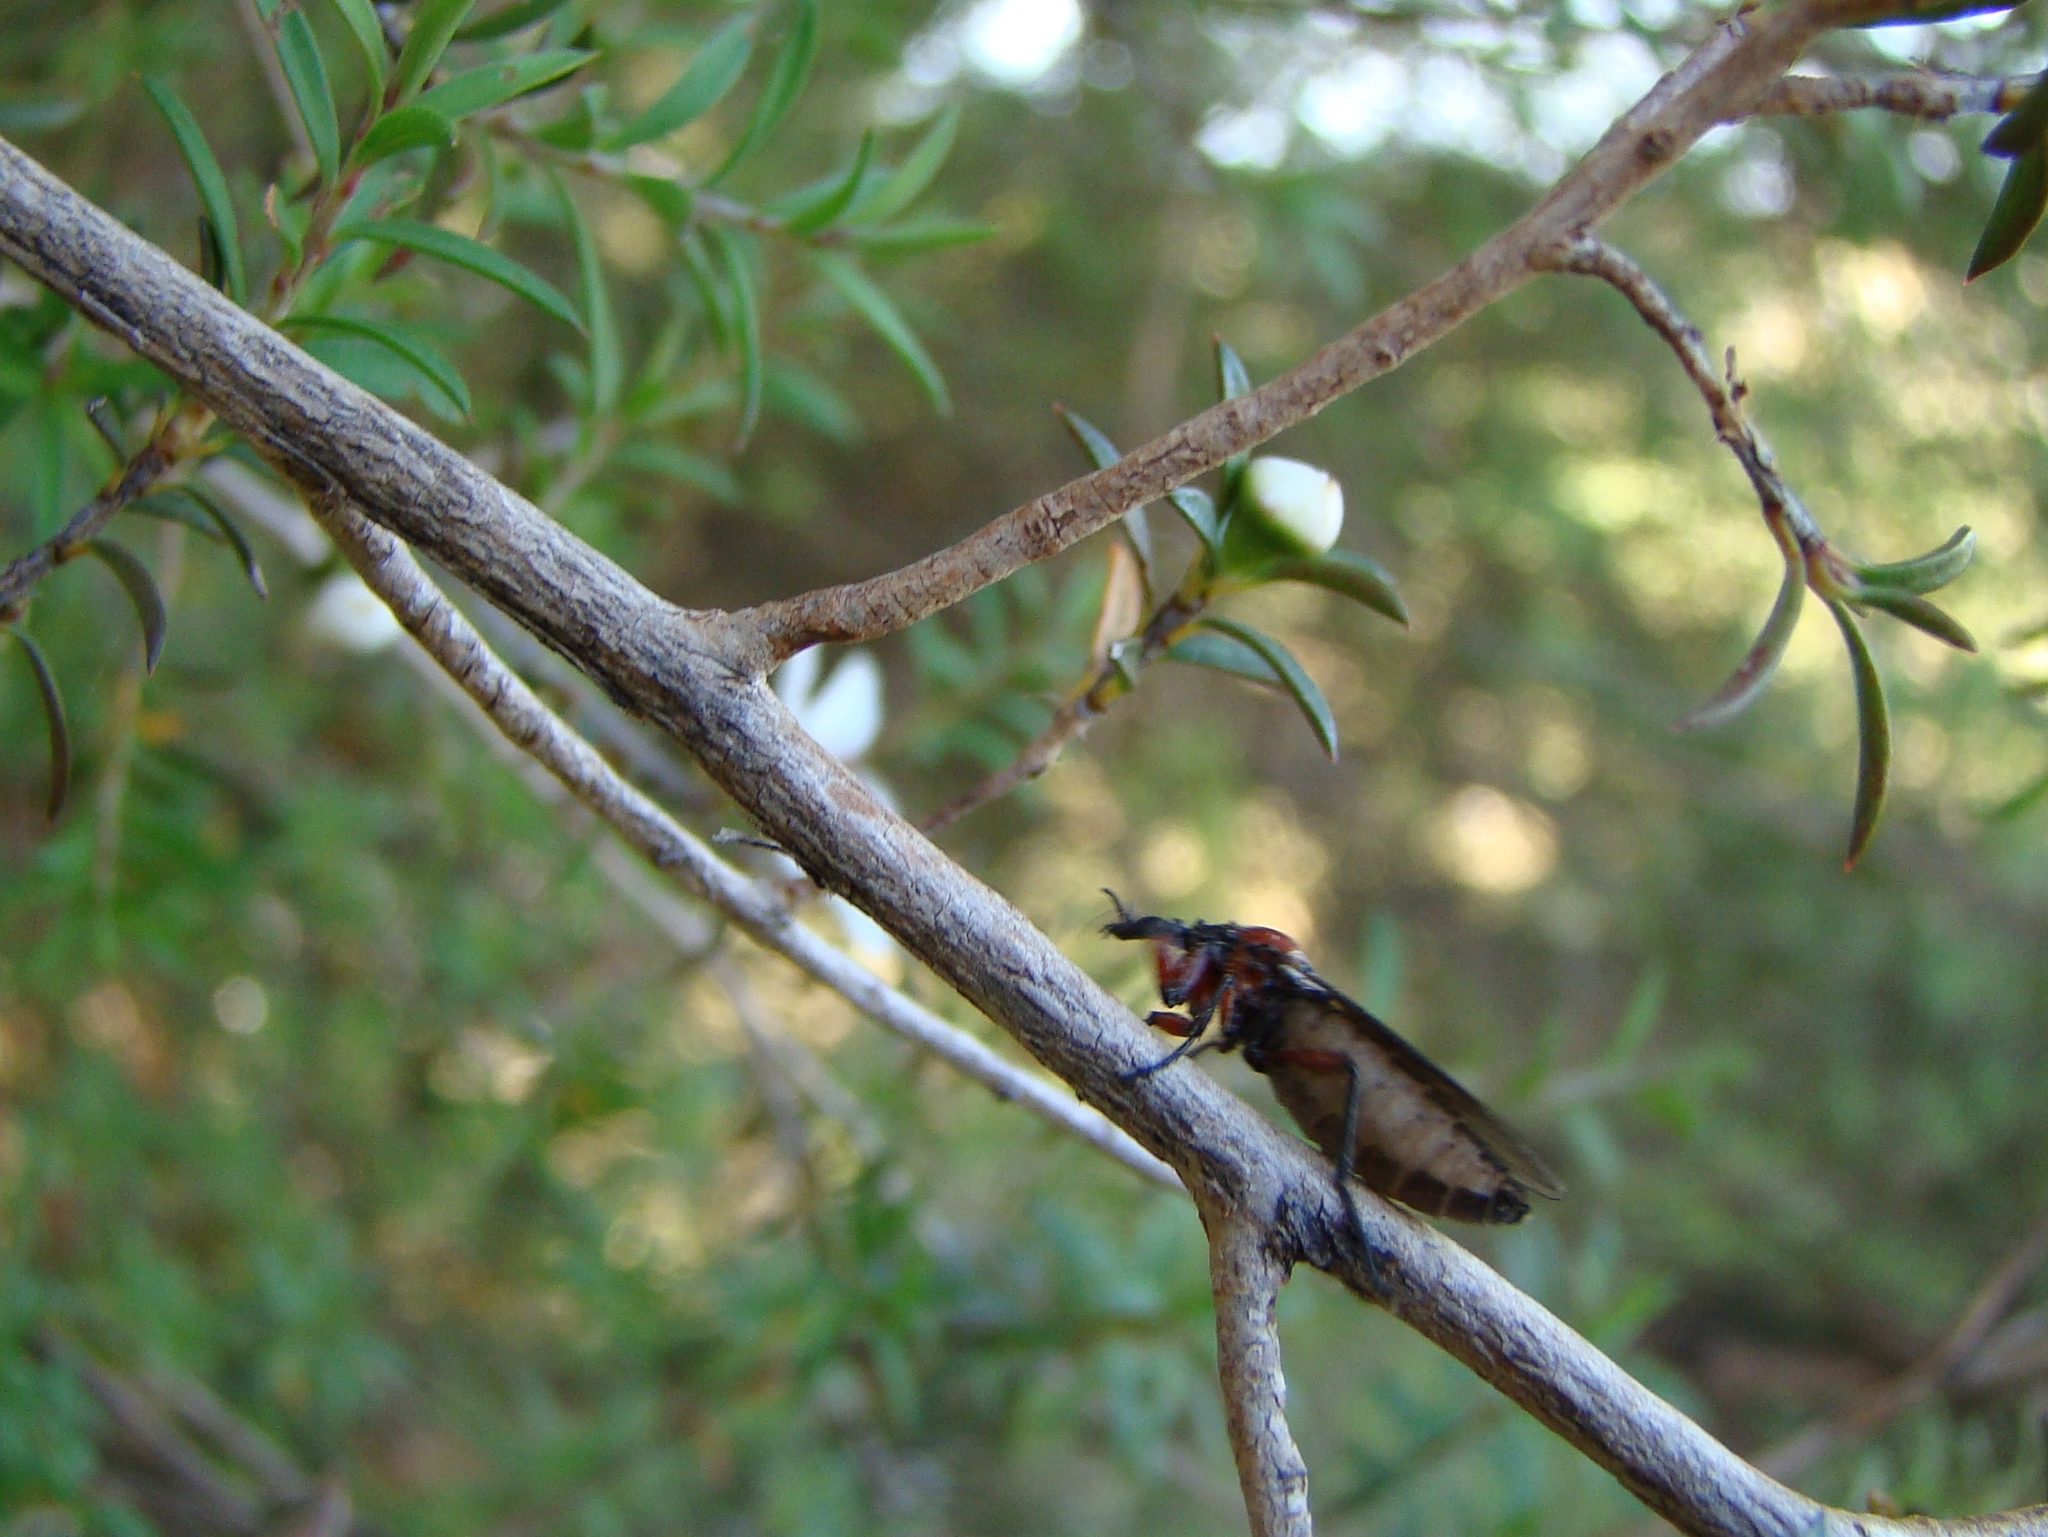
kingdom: Animalia
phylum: Arthropoda
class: Insecta
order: Diptera
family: Bibionidae
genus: Dilophus
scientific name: Dilophus nigrostigma
